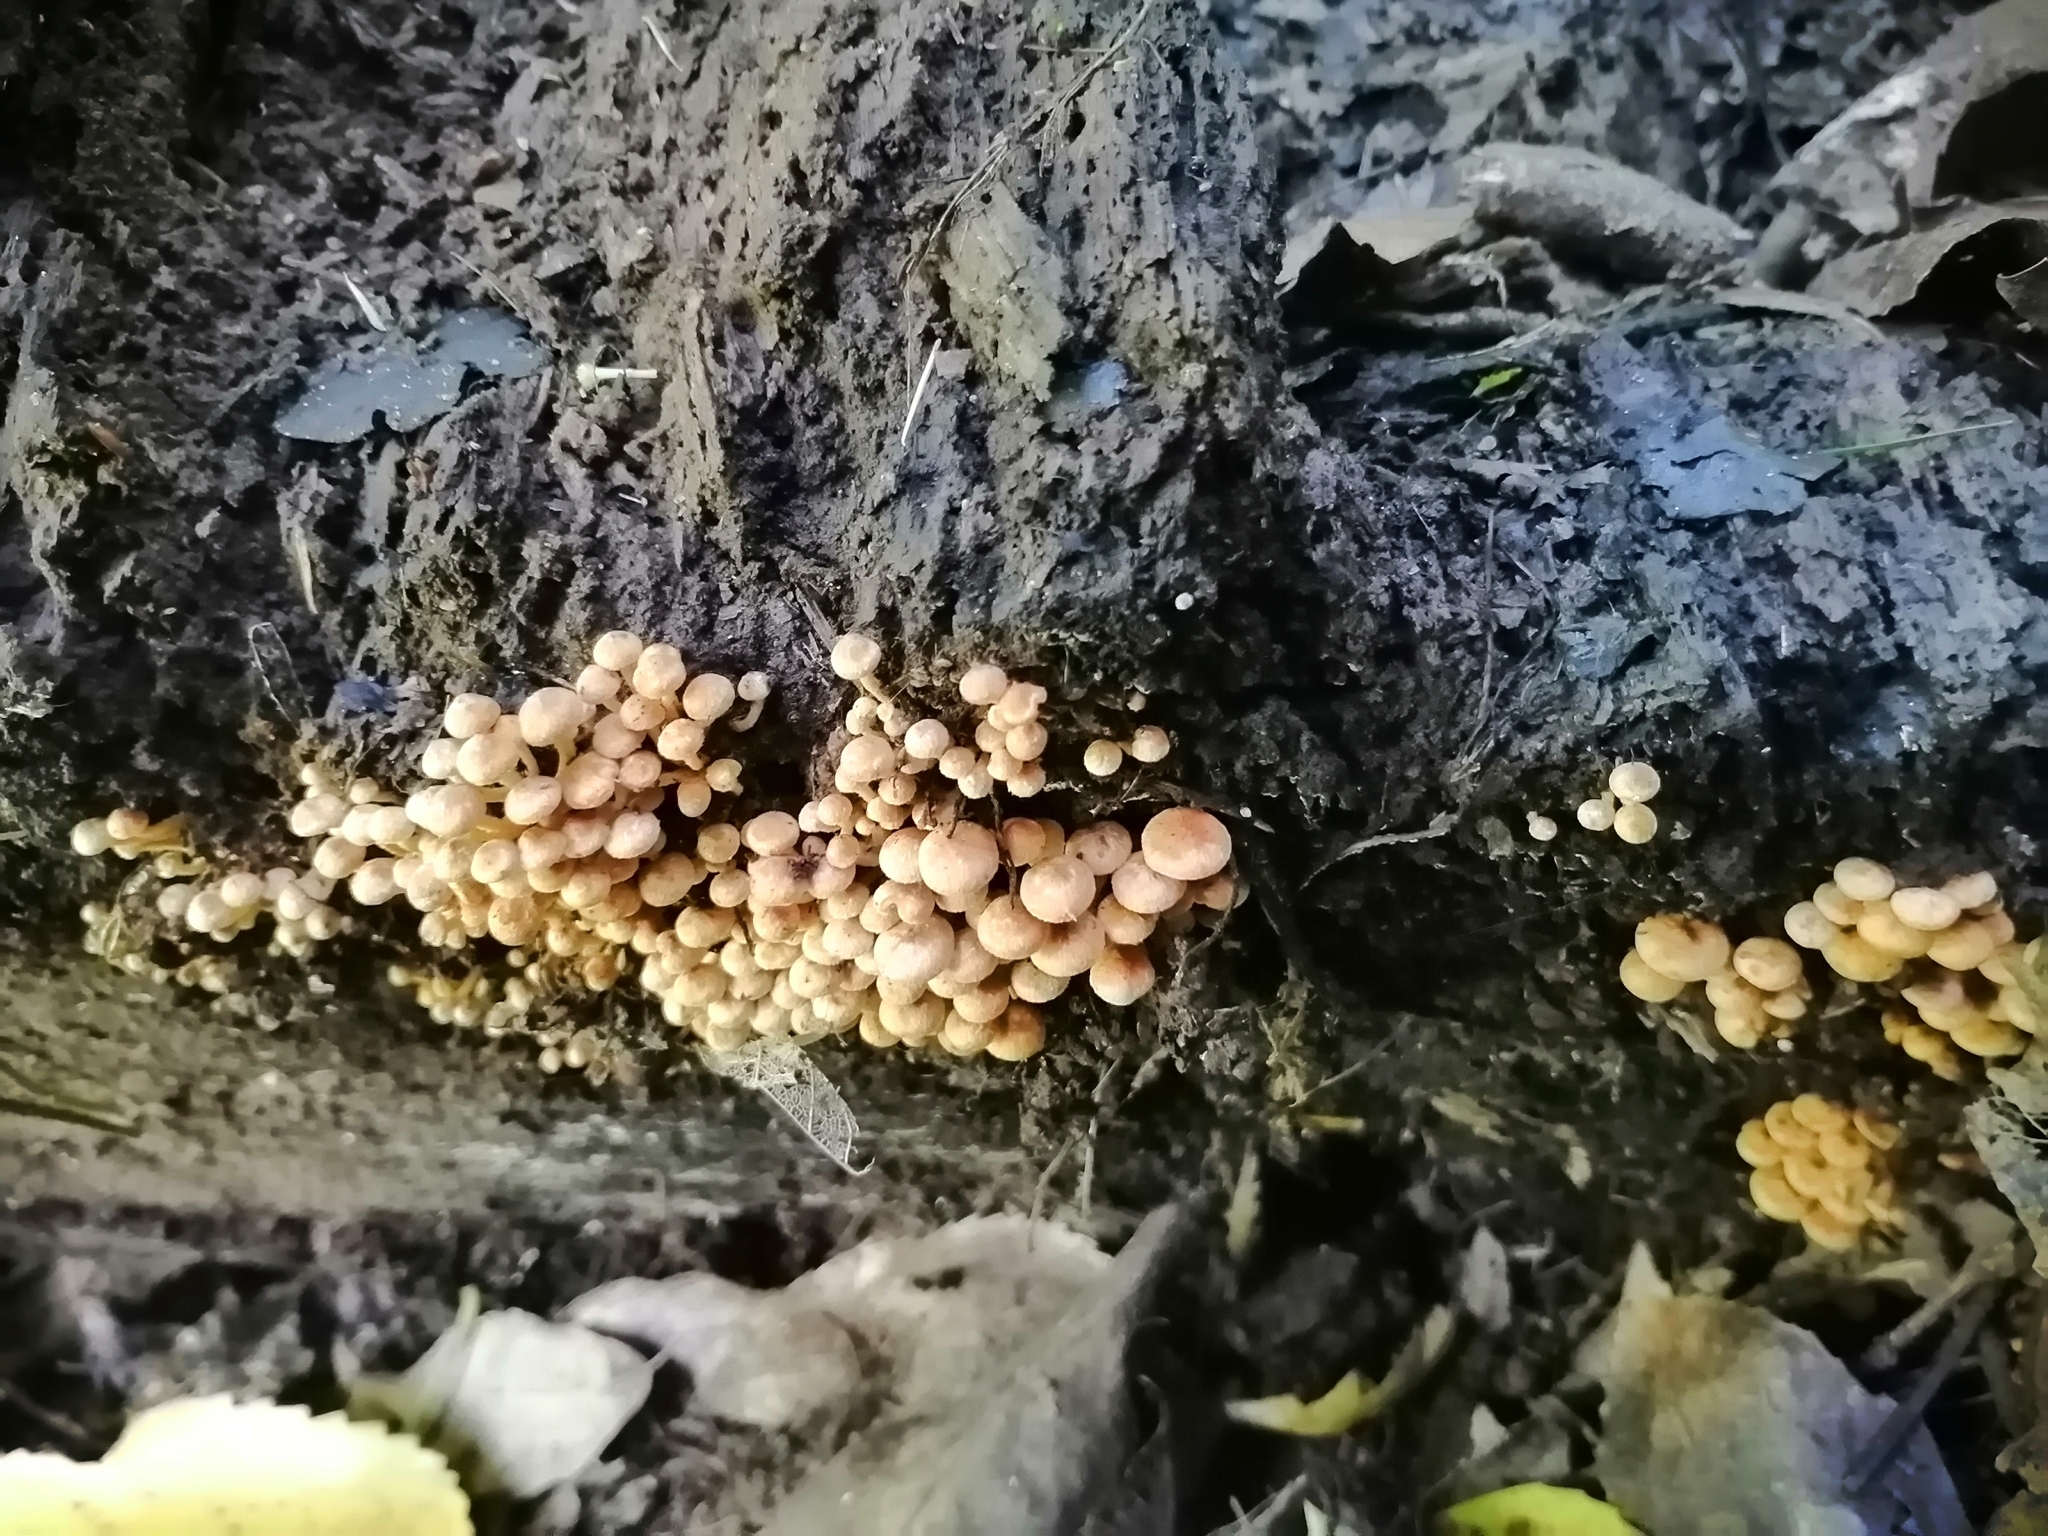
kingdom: Fungi
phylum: Basidiomycota
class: Agaricomycetes
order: Agaricales
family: Strophariaceae
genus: Hypholoma
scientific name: Hypholoma acutum
